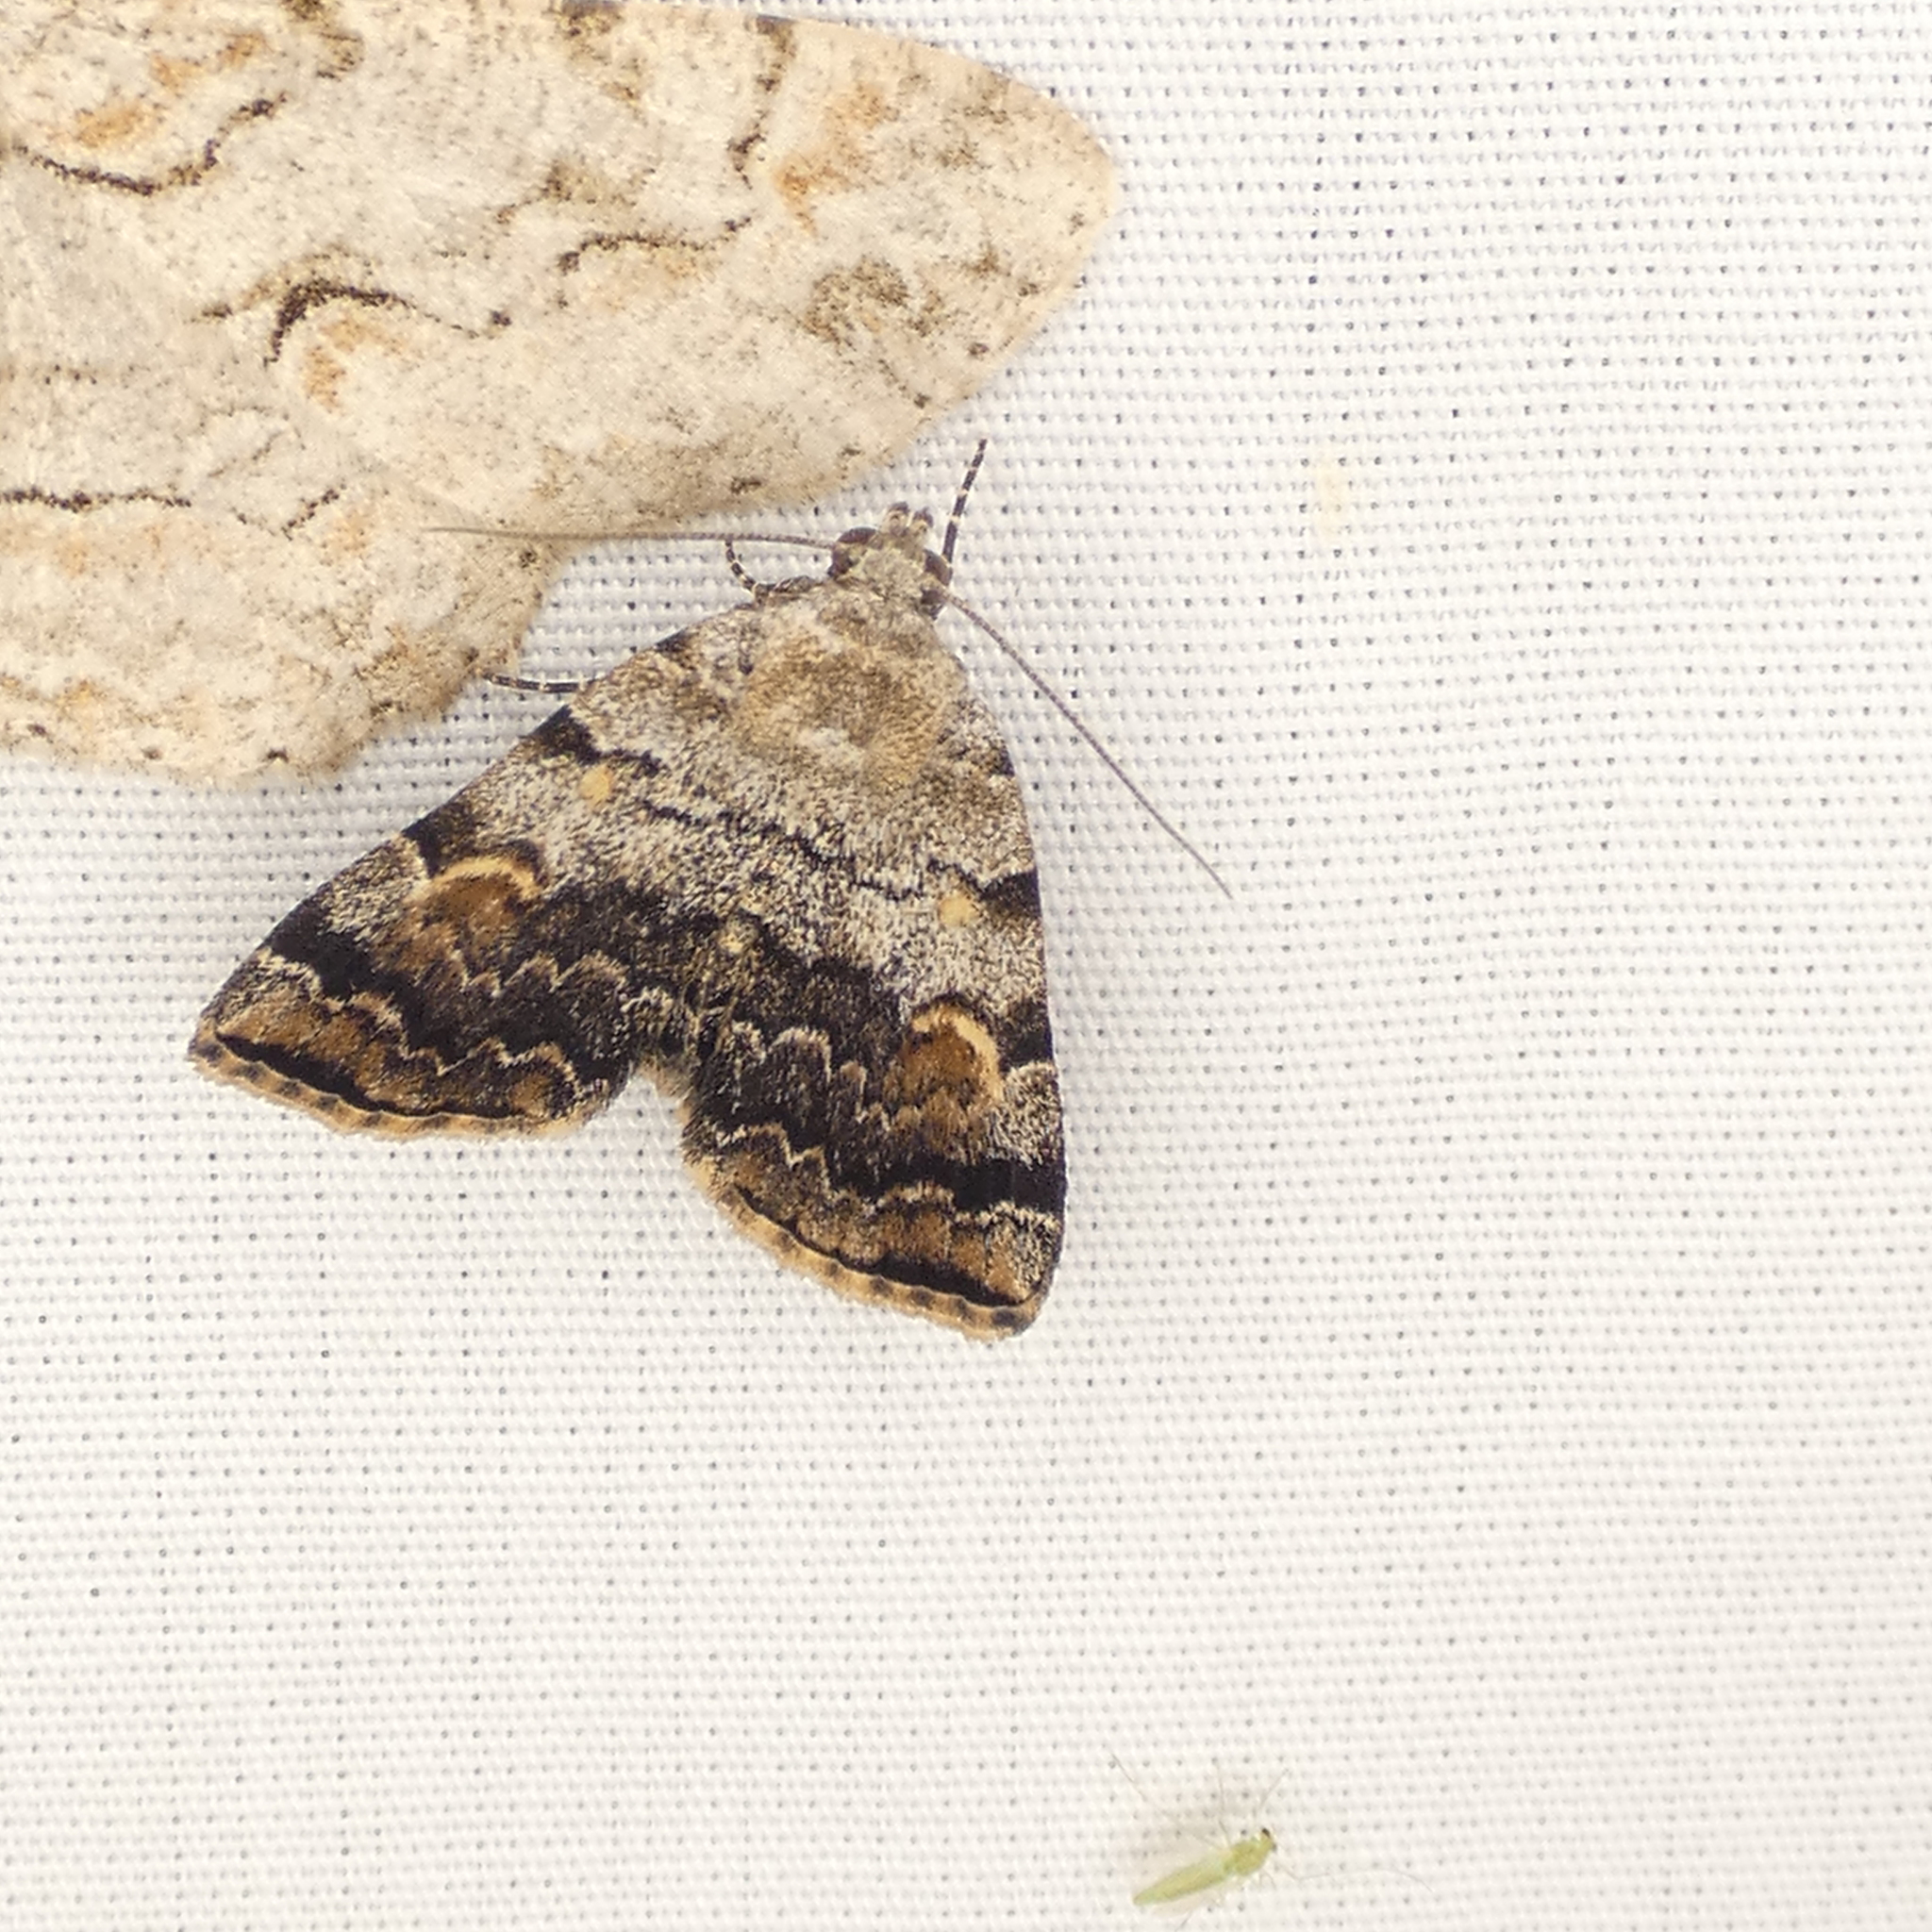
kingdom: Animalia
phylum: Arthropoda
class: Insecta
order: Lepidoptera
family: Erebidae
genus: Idia
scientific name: Idia americalis
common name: American idia moth
